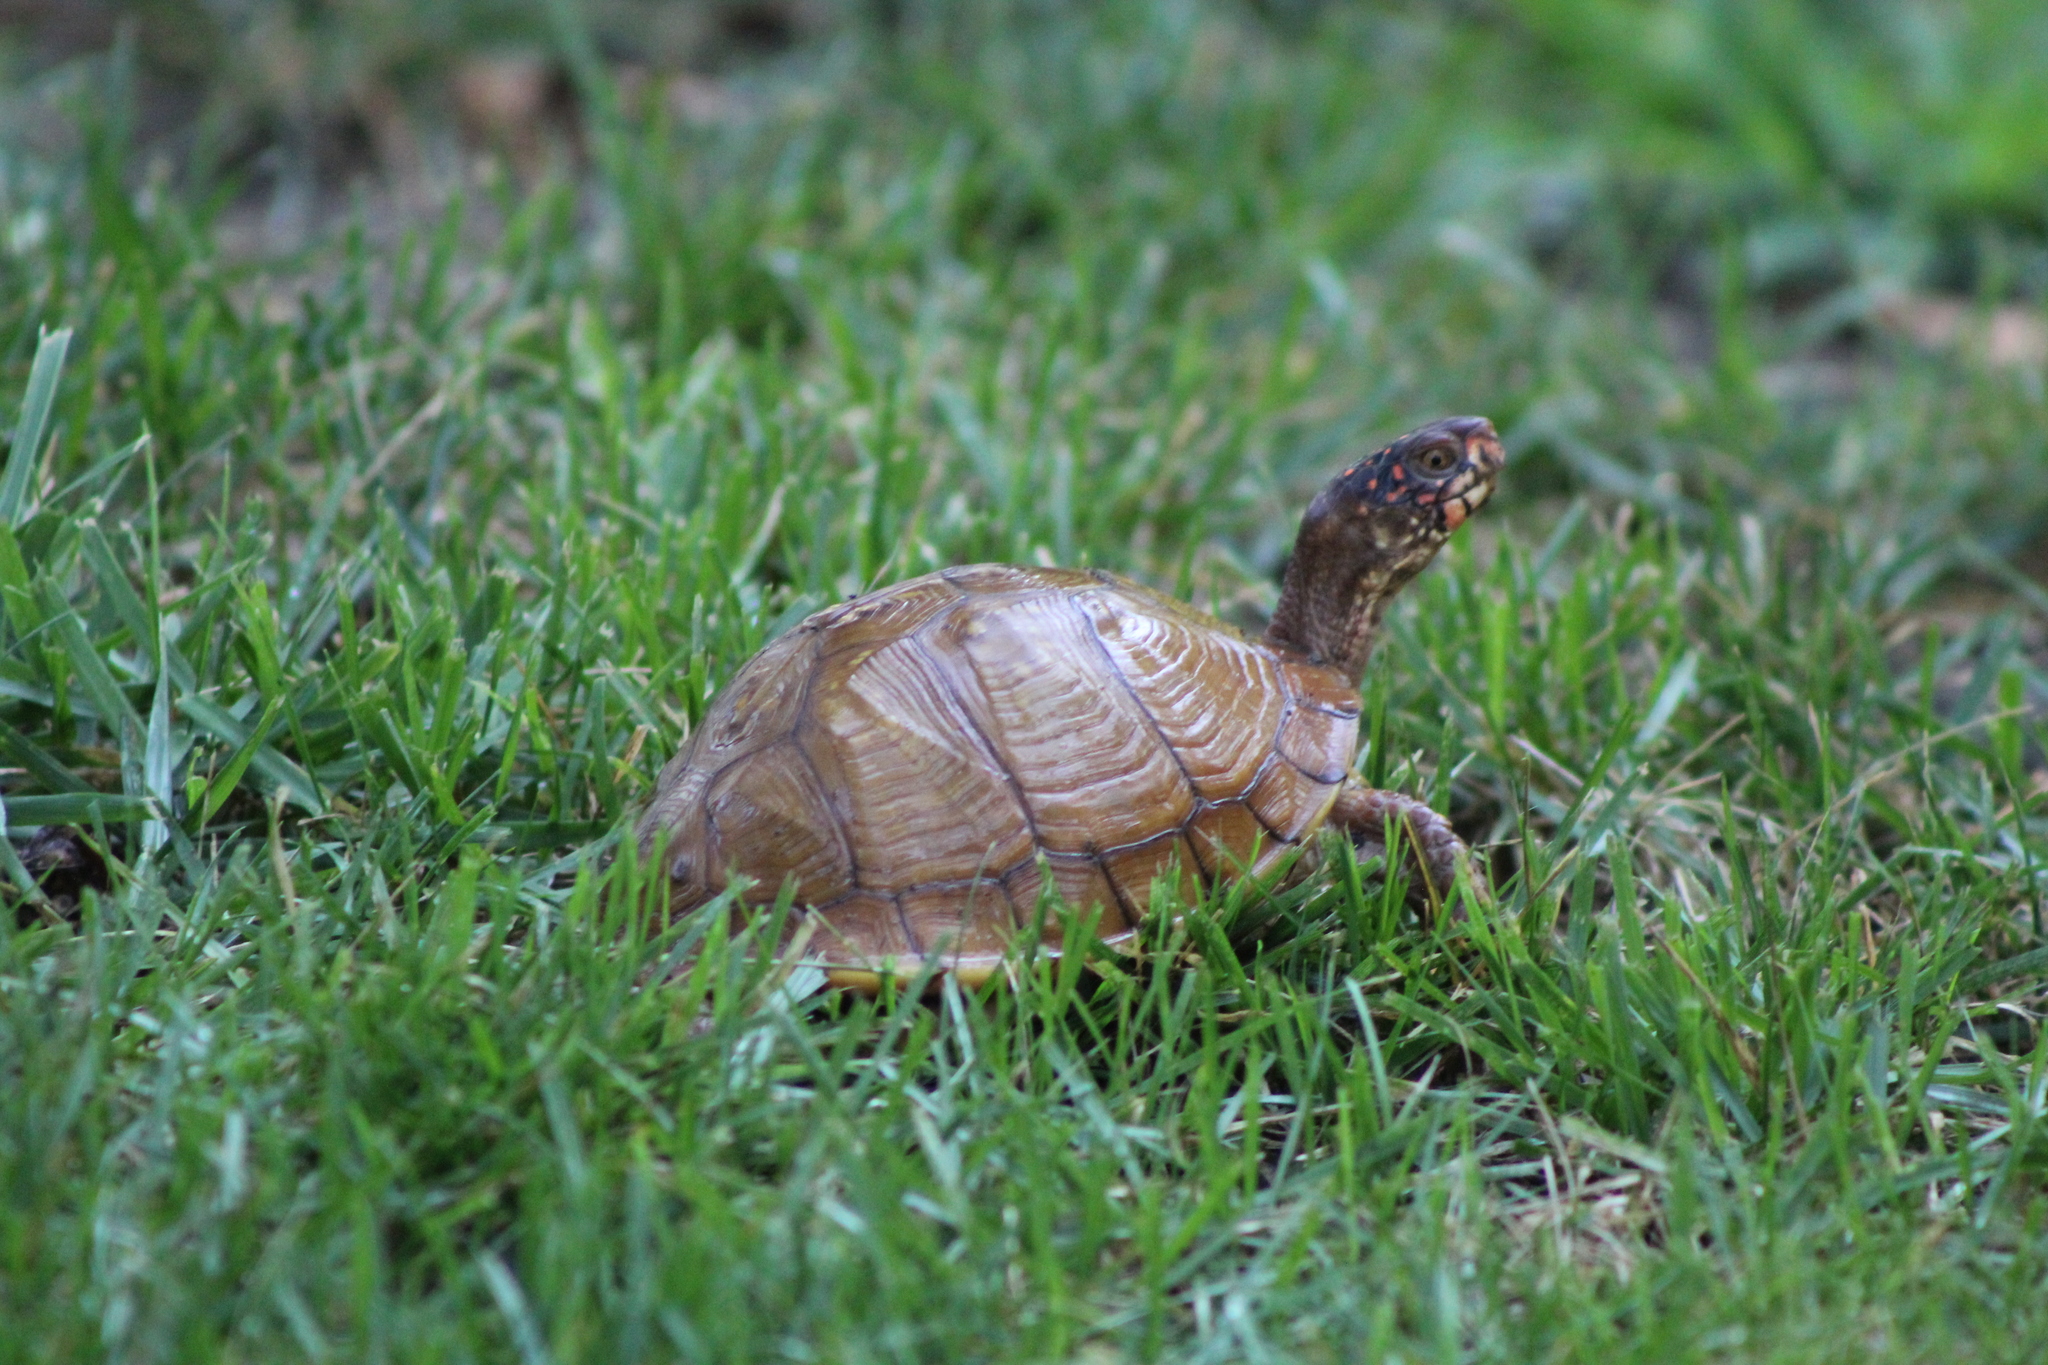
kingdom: Animalia
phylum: Chordata
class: Testudines
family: Emydidae
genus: Terrapene
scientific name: Terrapene carolina
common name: Common box turtle
